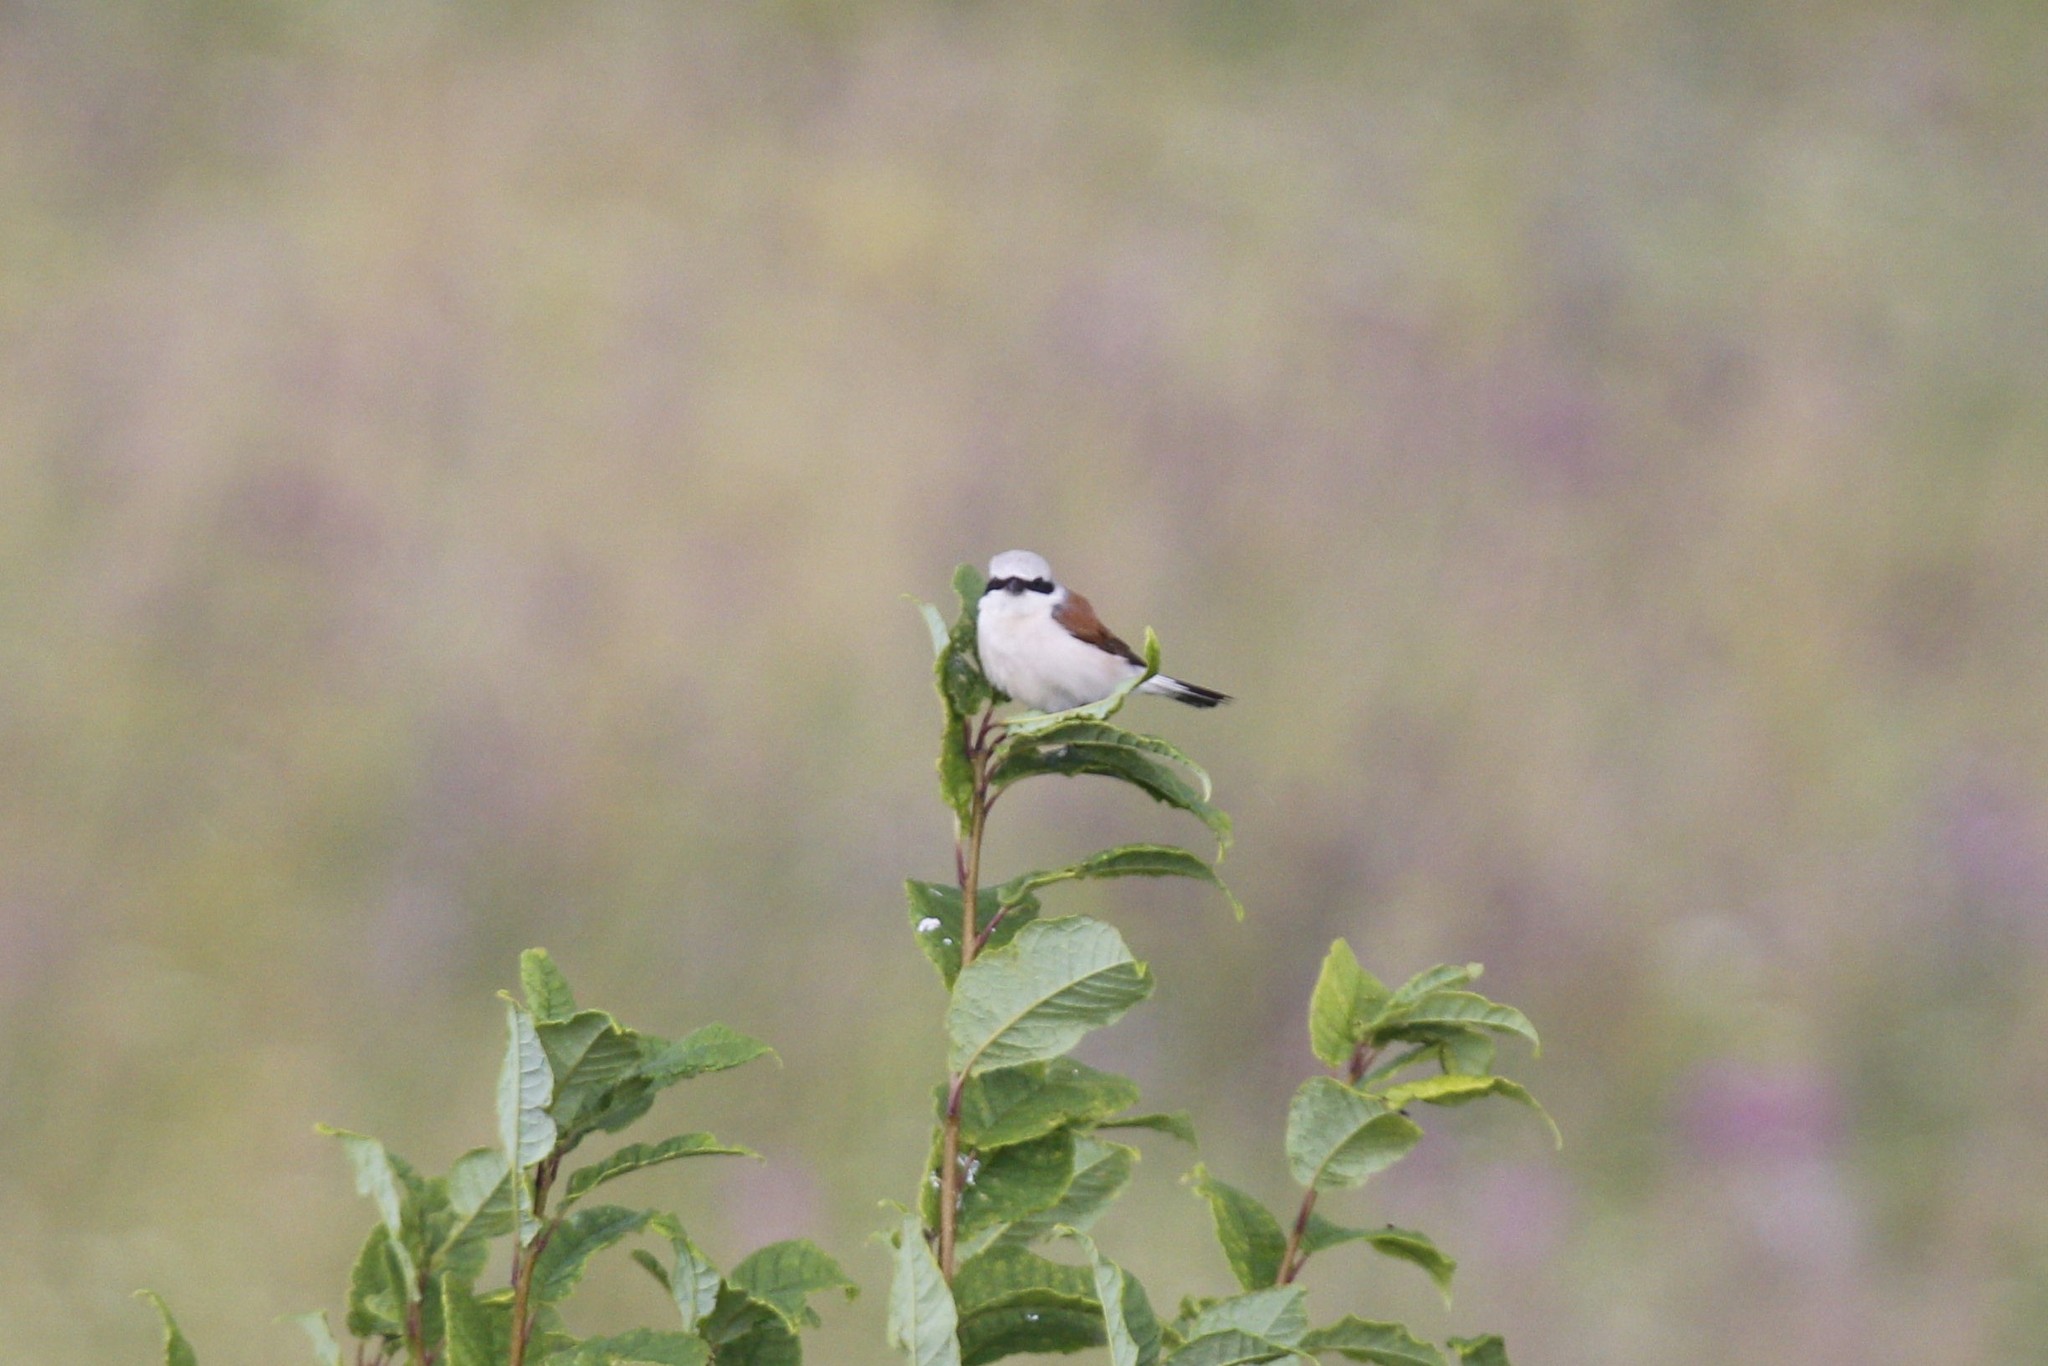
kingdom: Animalia
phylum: Chordata
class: Aves
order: Passeriformes
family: Laniidae
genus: Lanius
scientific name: Lanius collurio
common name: Red-backed shrike
